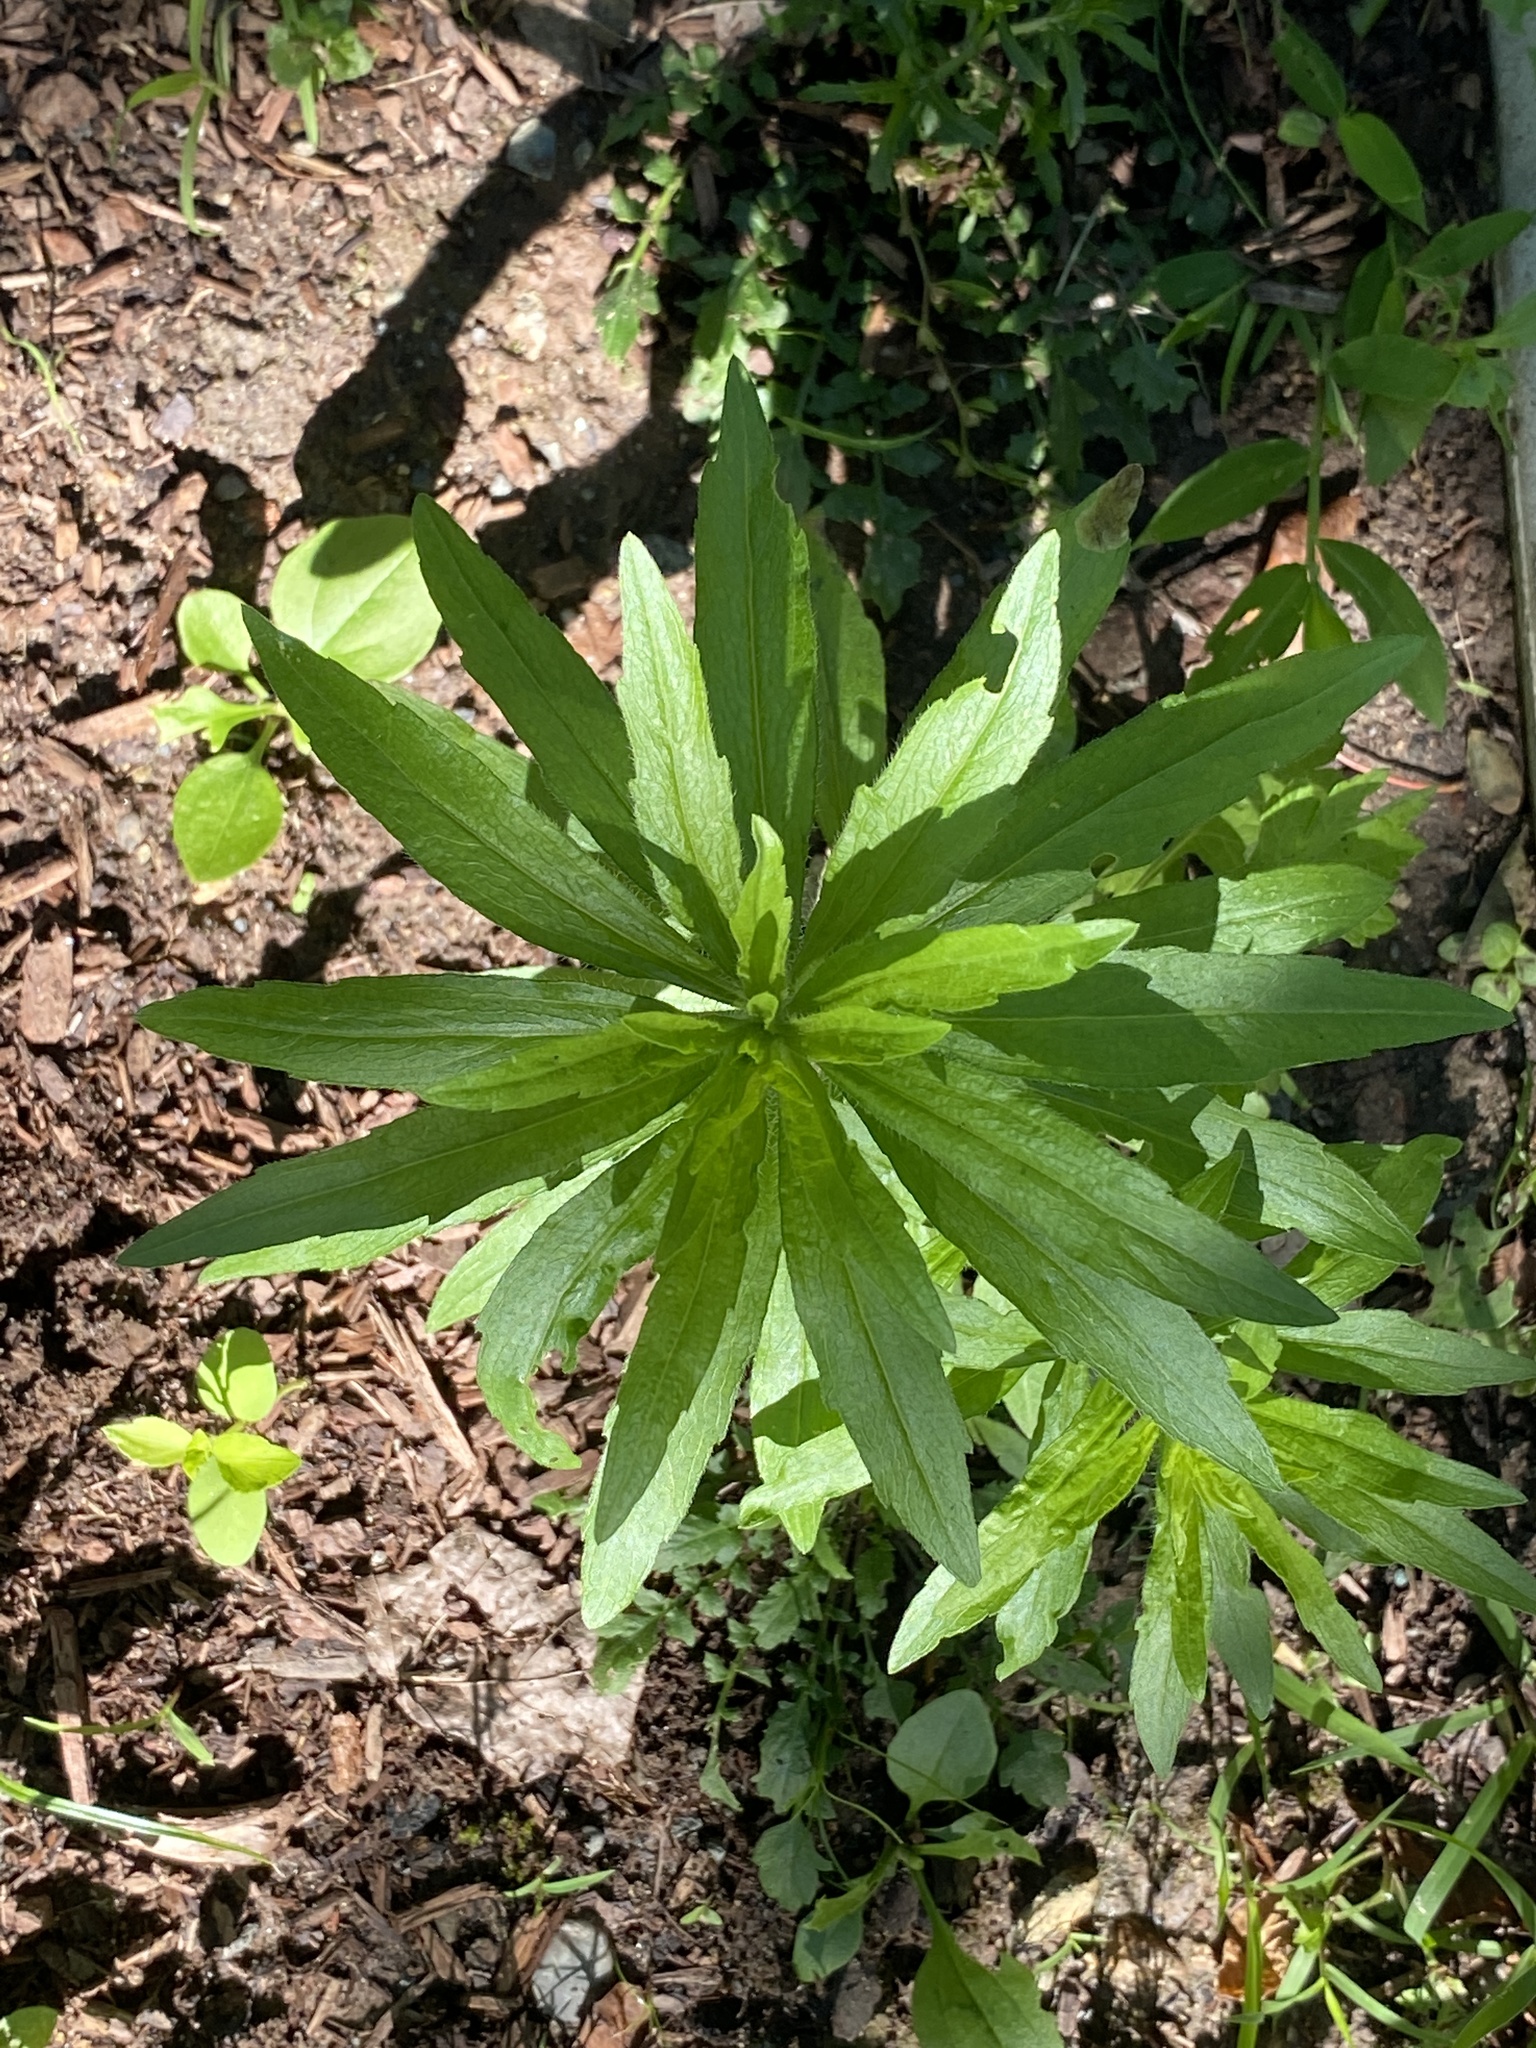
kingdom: Plantae
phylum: Tracheophyta
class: Magnoliopsida
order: Asterales
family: Asteraceae
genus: Erigeron
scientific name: Erigeron canadensis
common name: Canadian fleabane
